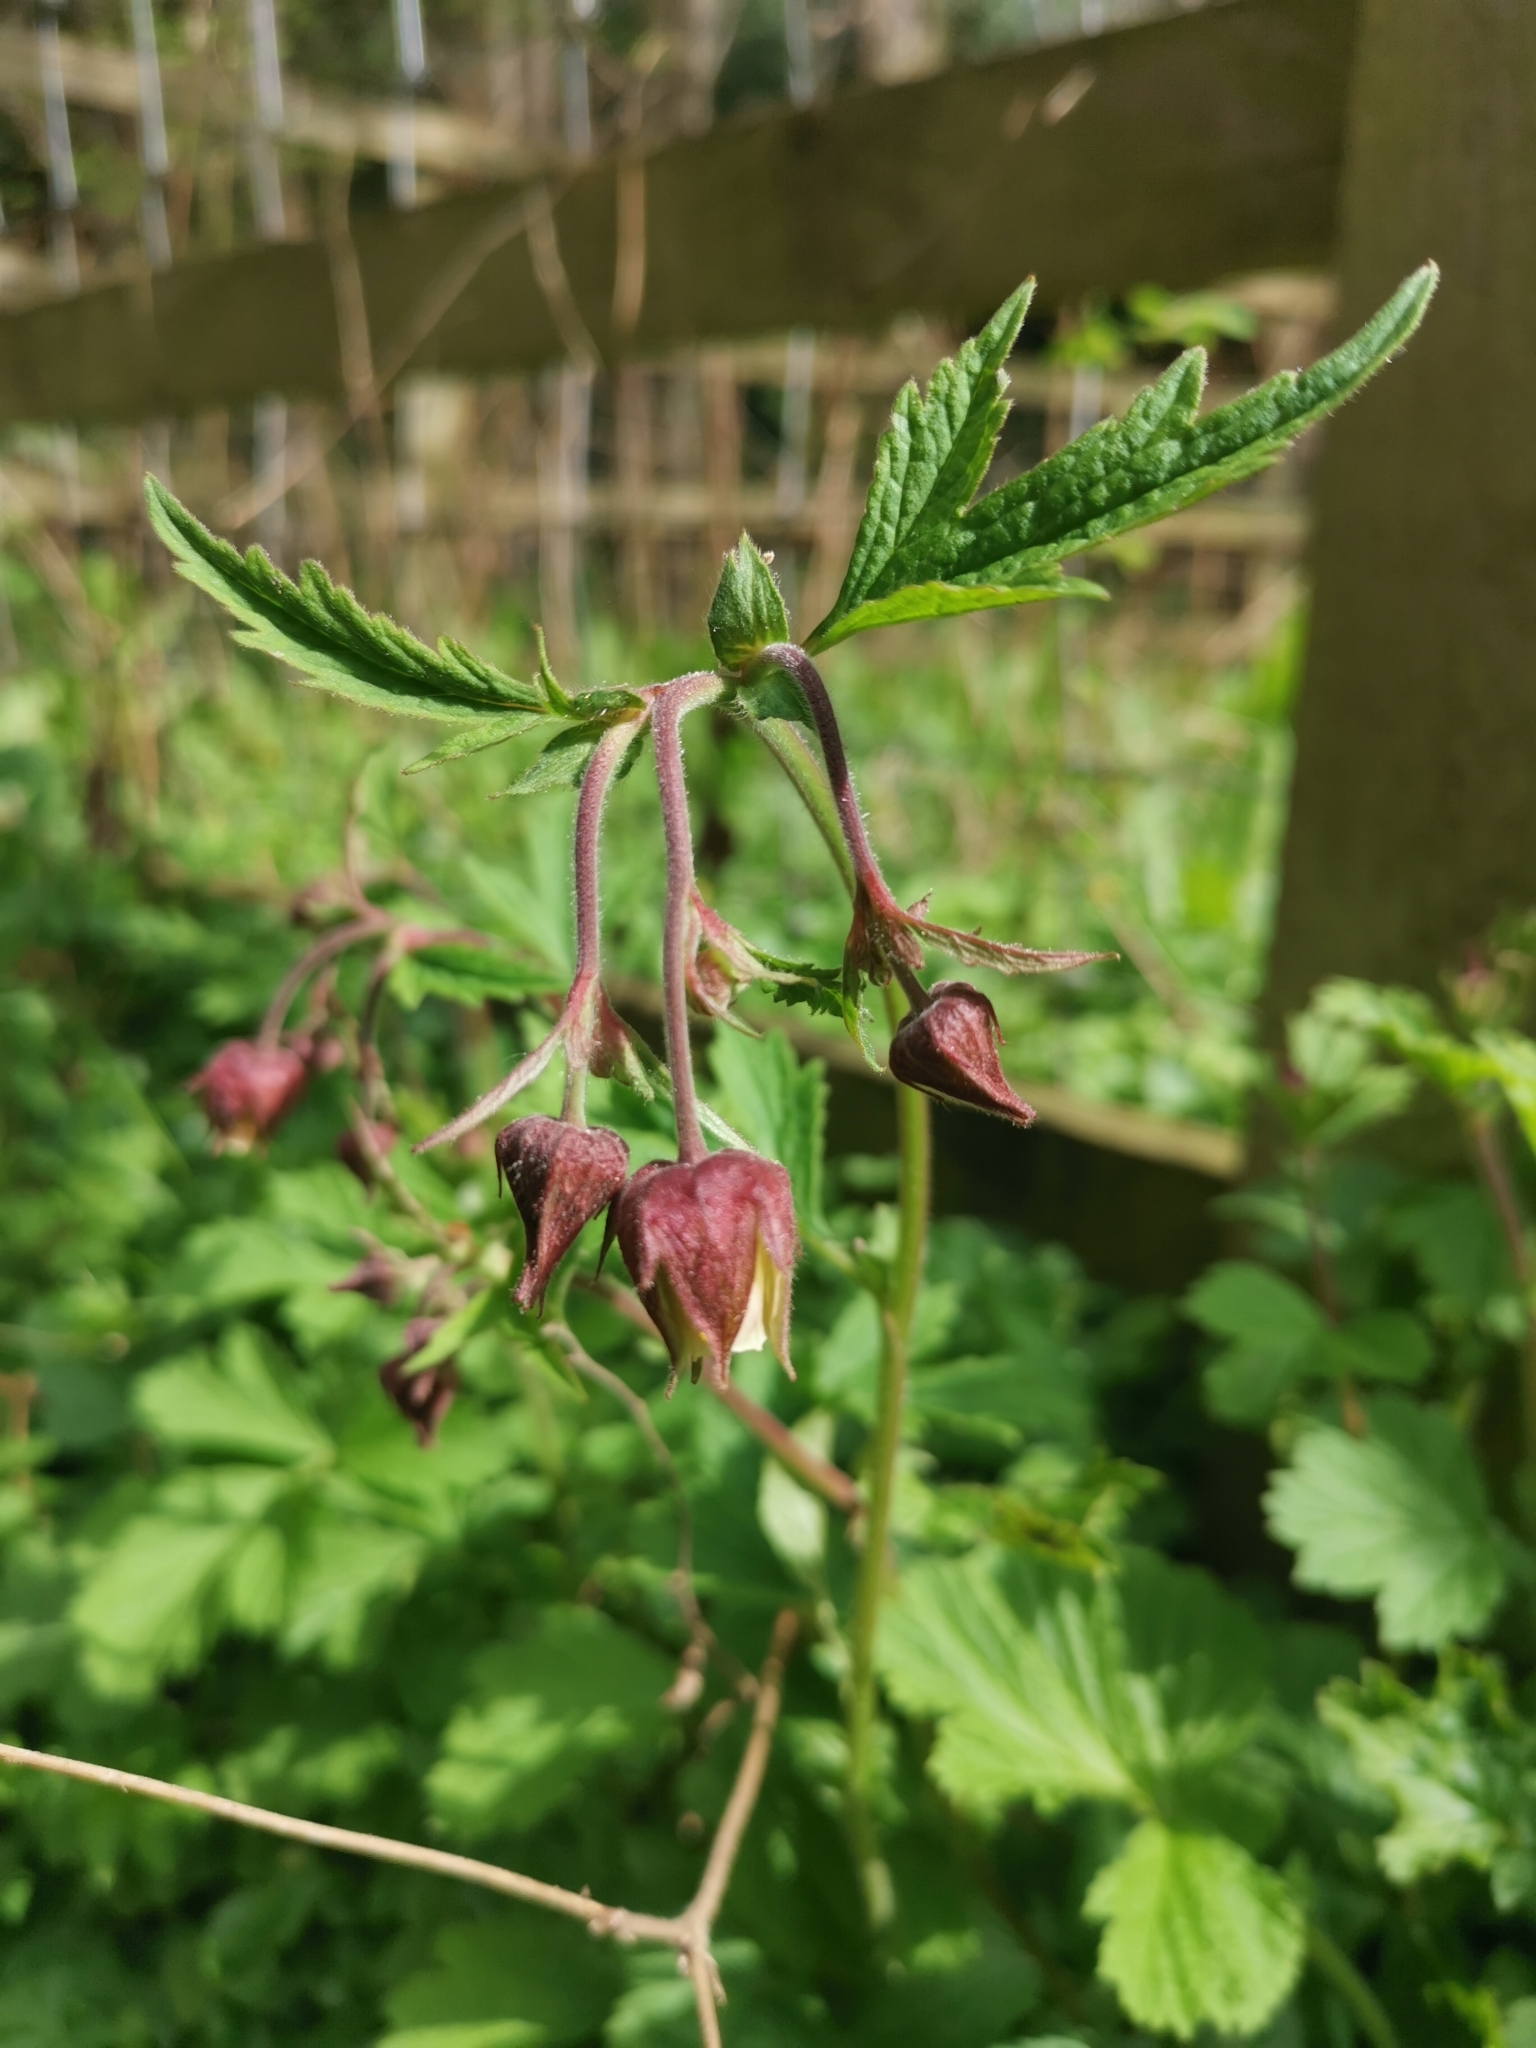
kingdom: Plantae
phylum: Tracheophyta
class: Magnoliopsida
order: Rosales
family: Rosaceae
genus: Geum
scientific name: Geum rivale
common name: Water avens
